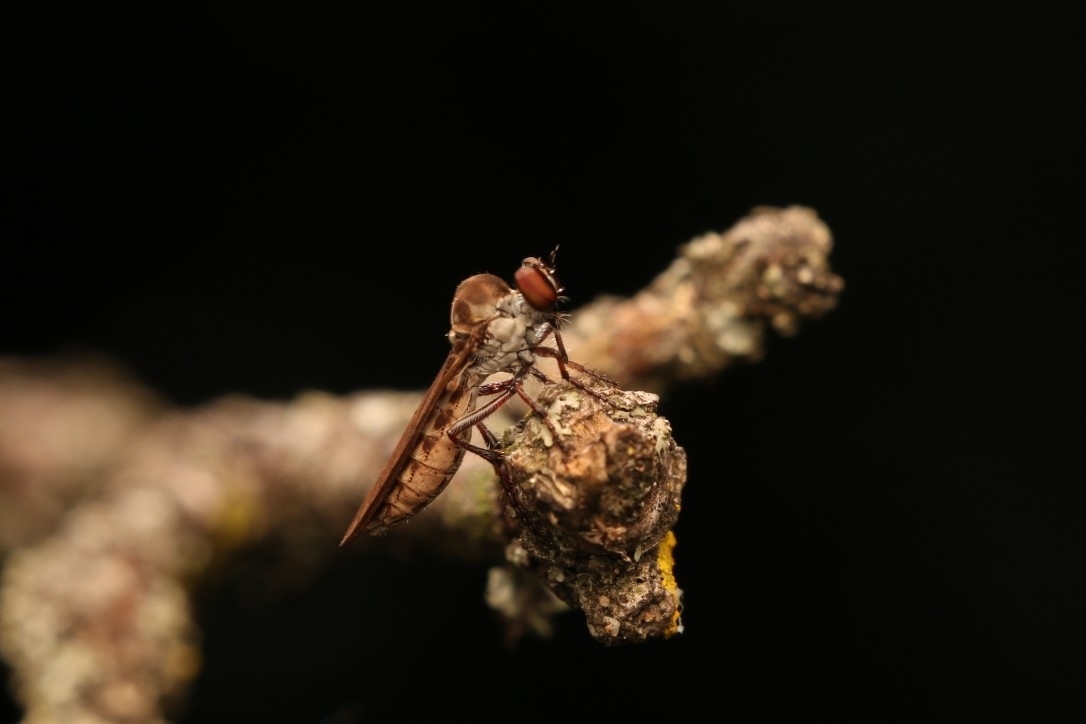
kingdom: Animalia
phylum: Arthropoda
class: Insecta
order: Diptera
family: Asilidae
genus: Holcocephala
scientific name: Holcocephala calva
